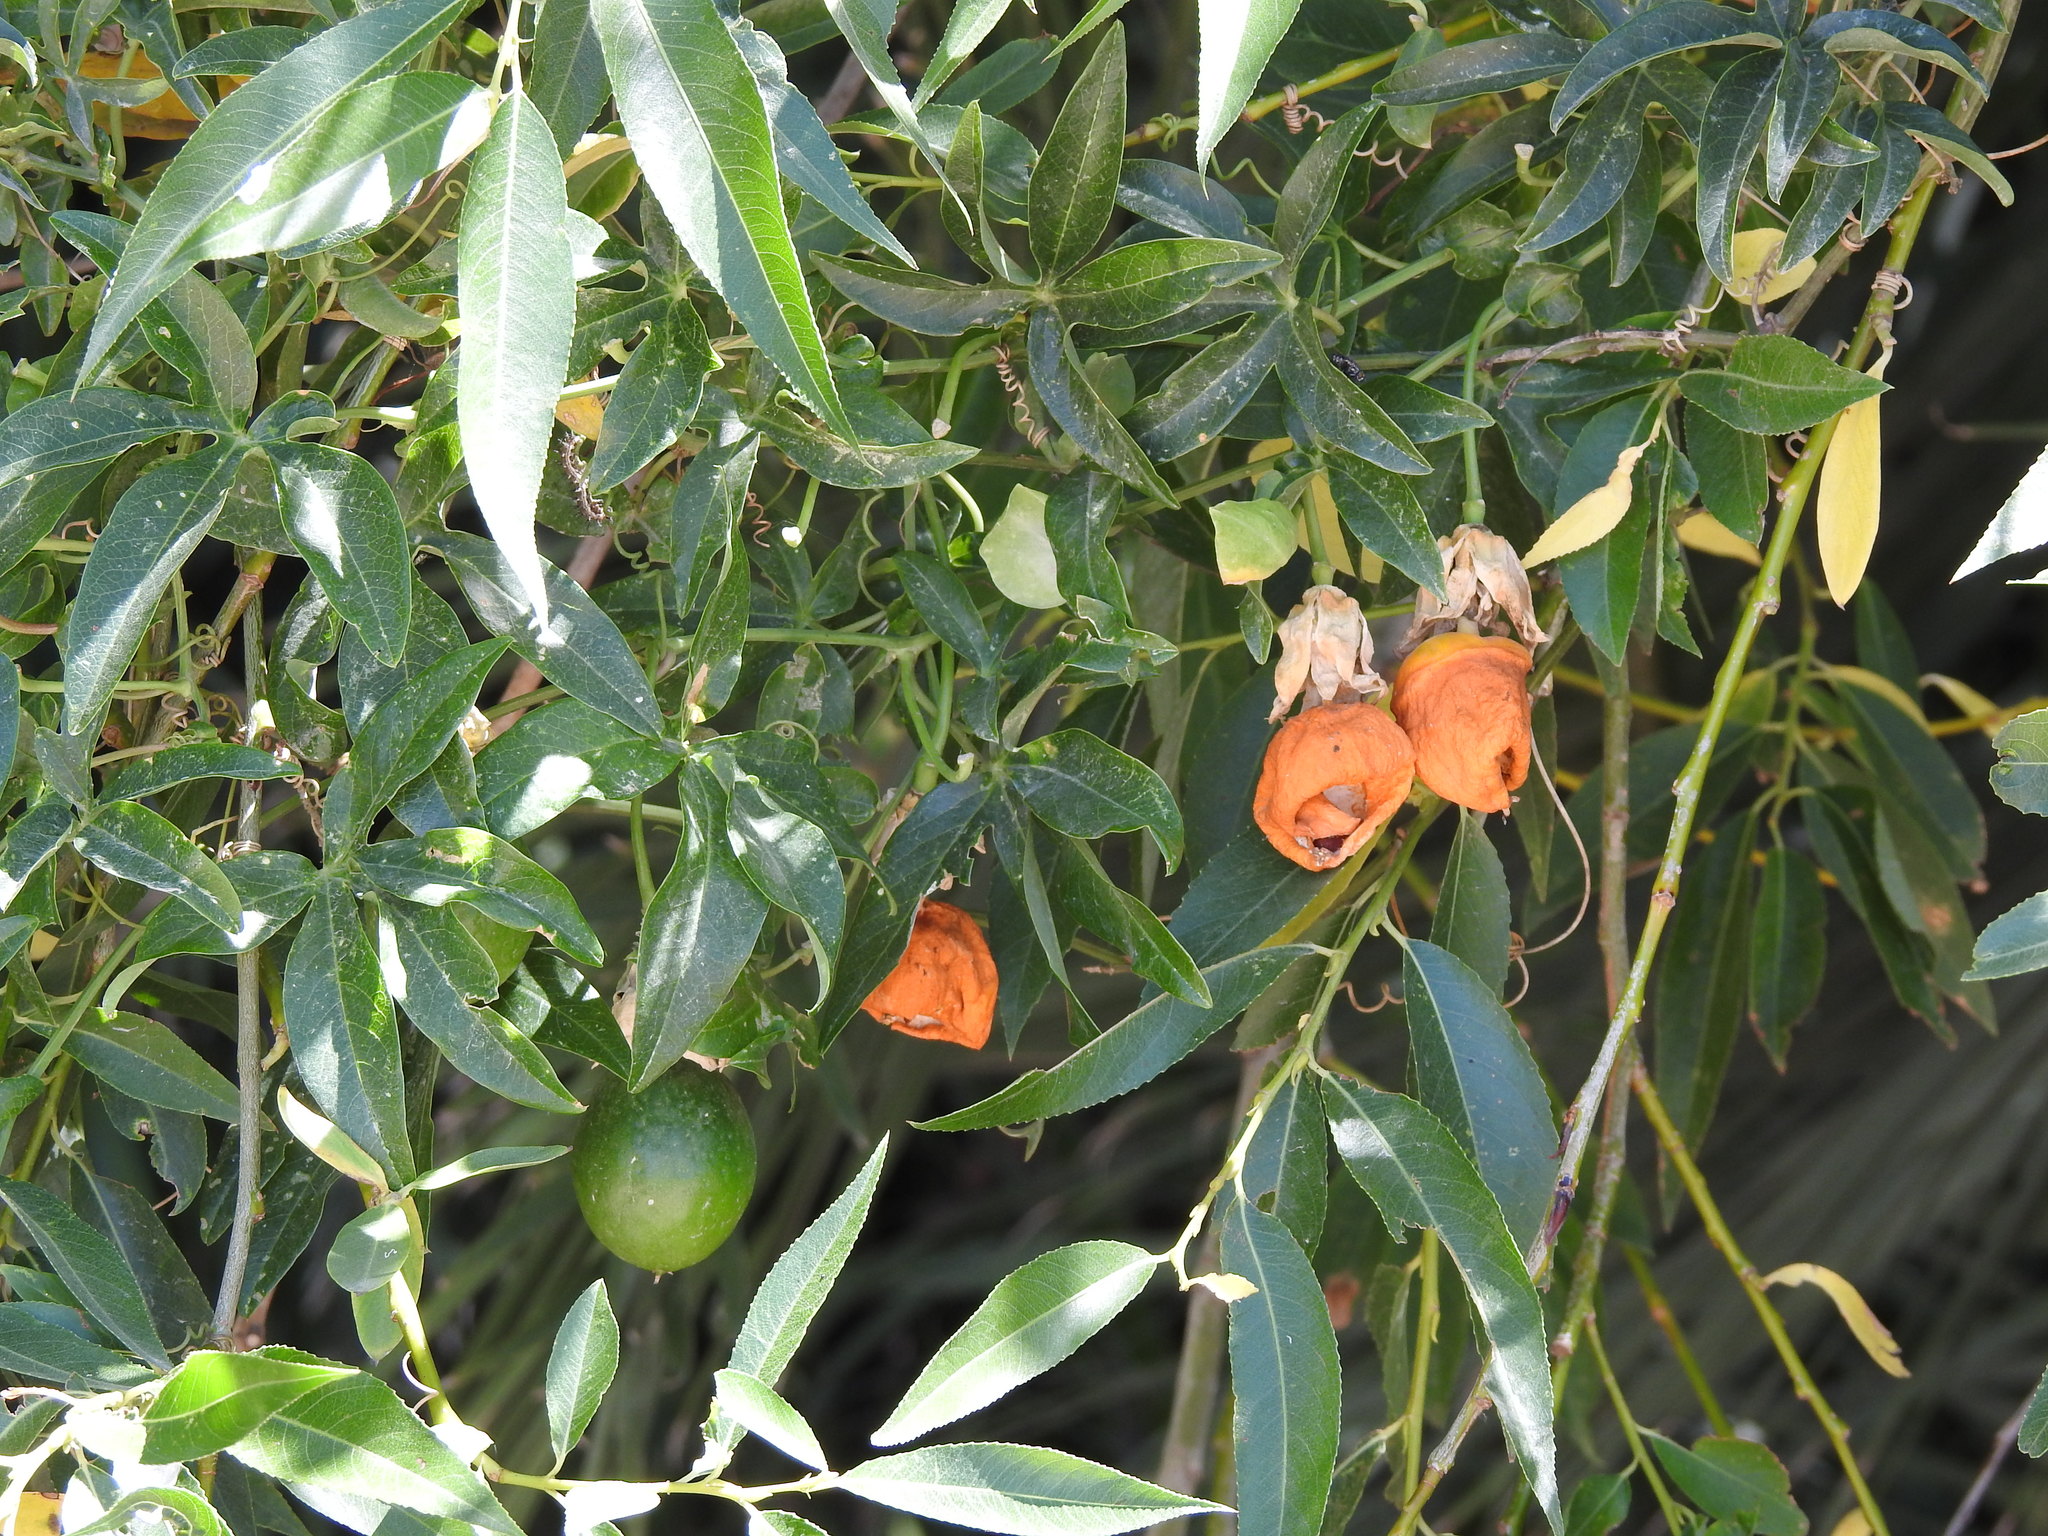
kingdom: Plantae
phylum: Tracheophyta
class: Magnoliopsida
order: Malpighiales
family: Passifloraceae
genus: Passiflora
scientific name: Passiflora caerulea
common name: Blue passionflower
